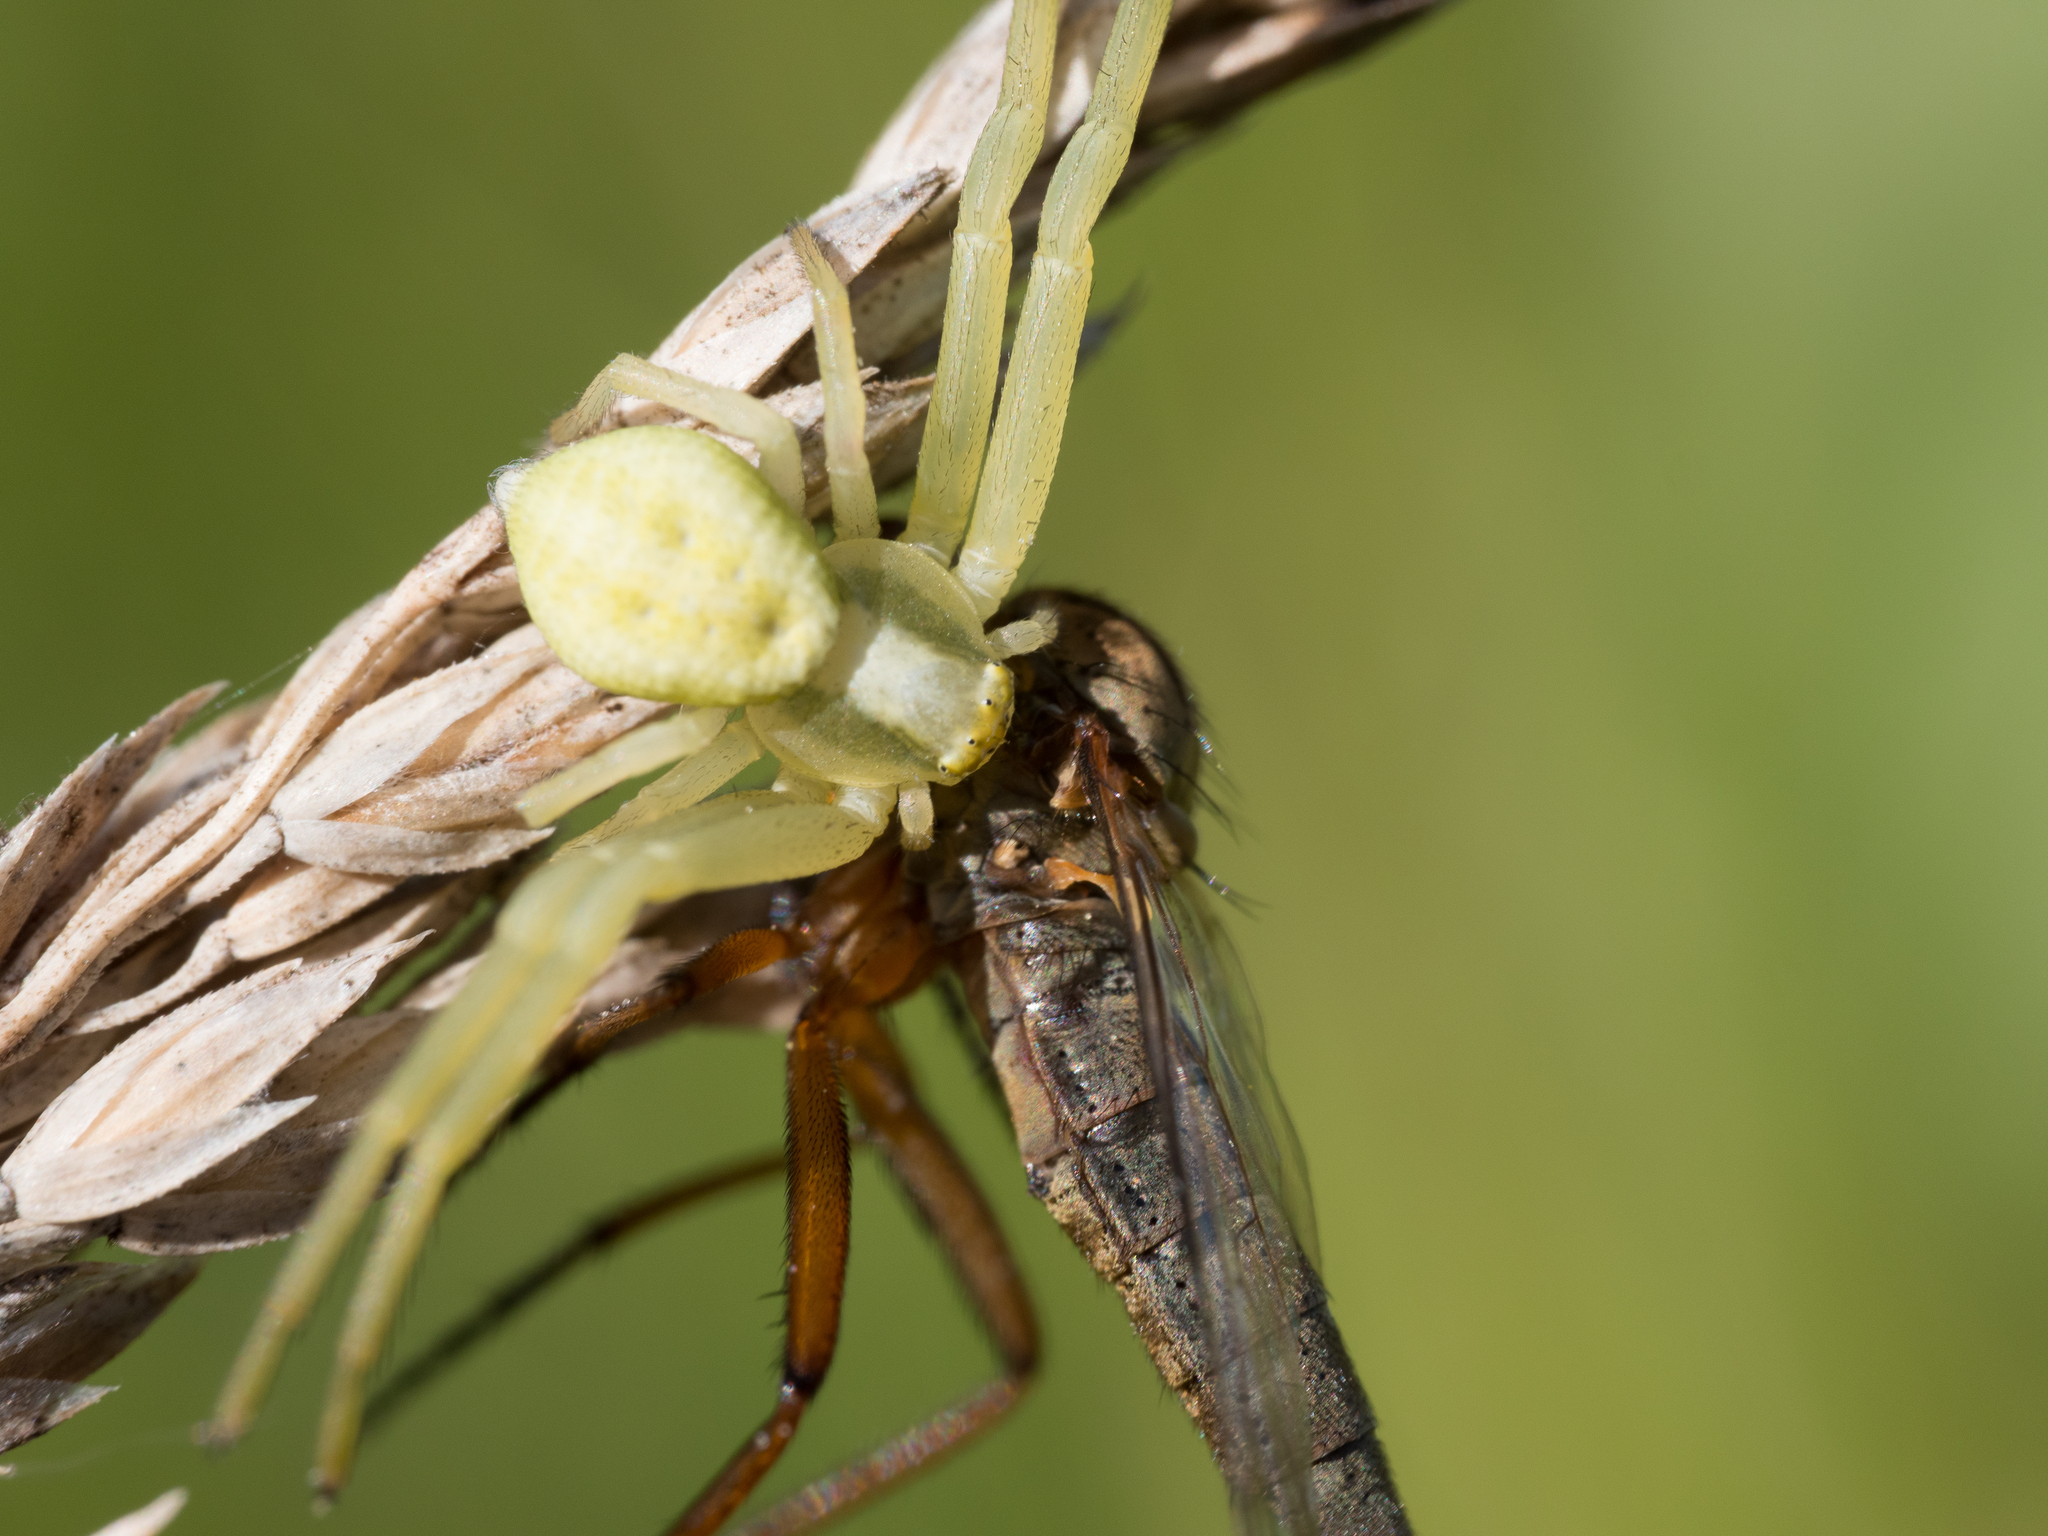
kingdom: Animalia
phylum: Arthropoda
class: Arachnida
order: Araneae
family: Thomisidae
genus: Misumena
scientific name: Misumena vatia
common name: Goldenrod crab spider
